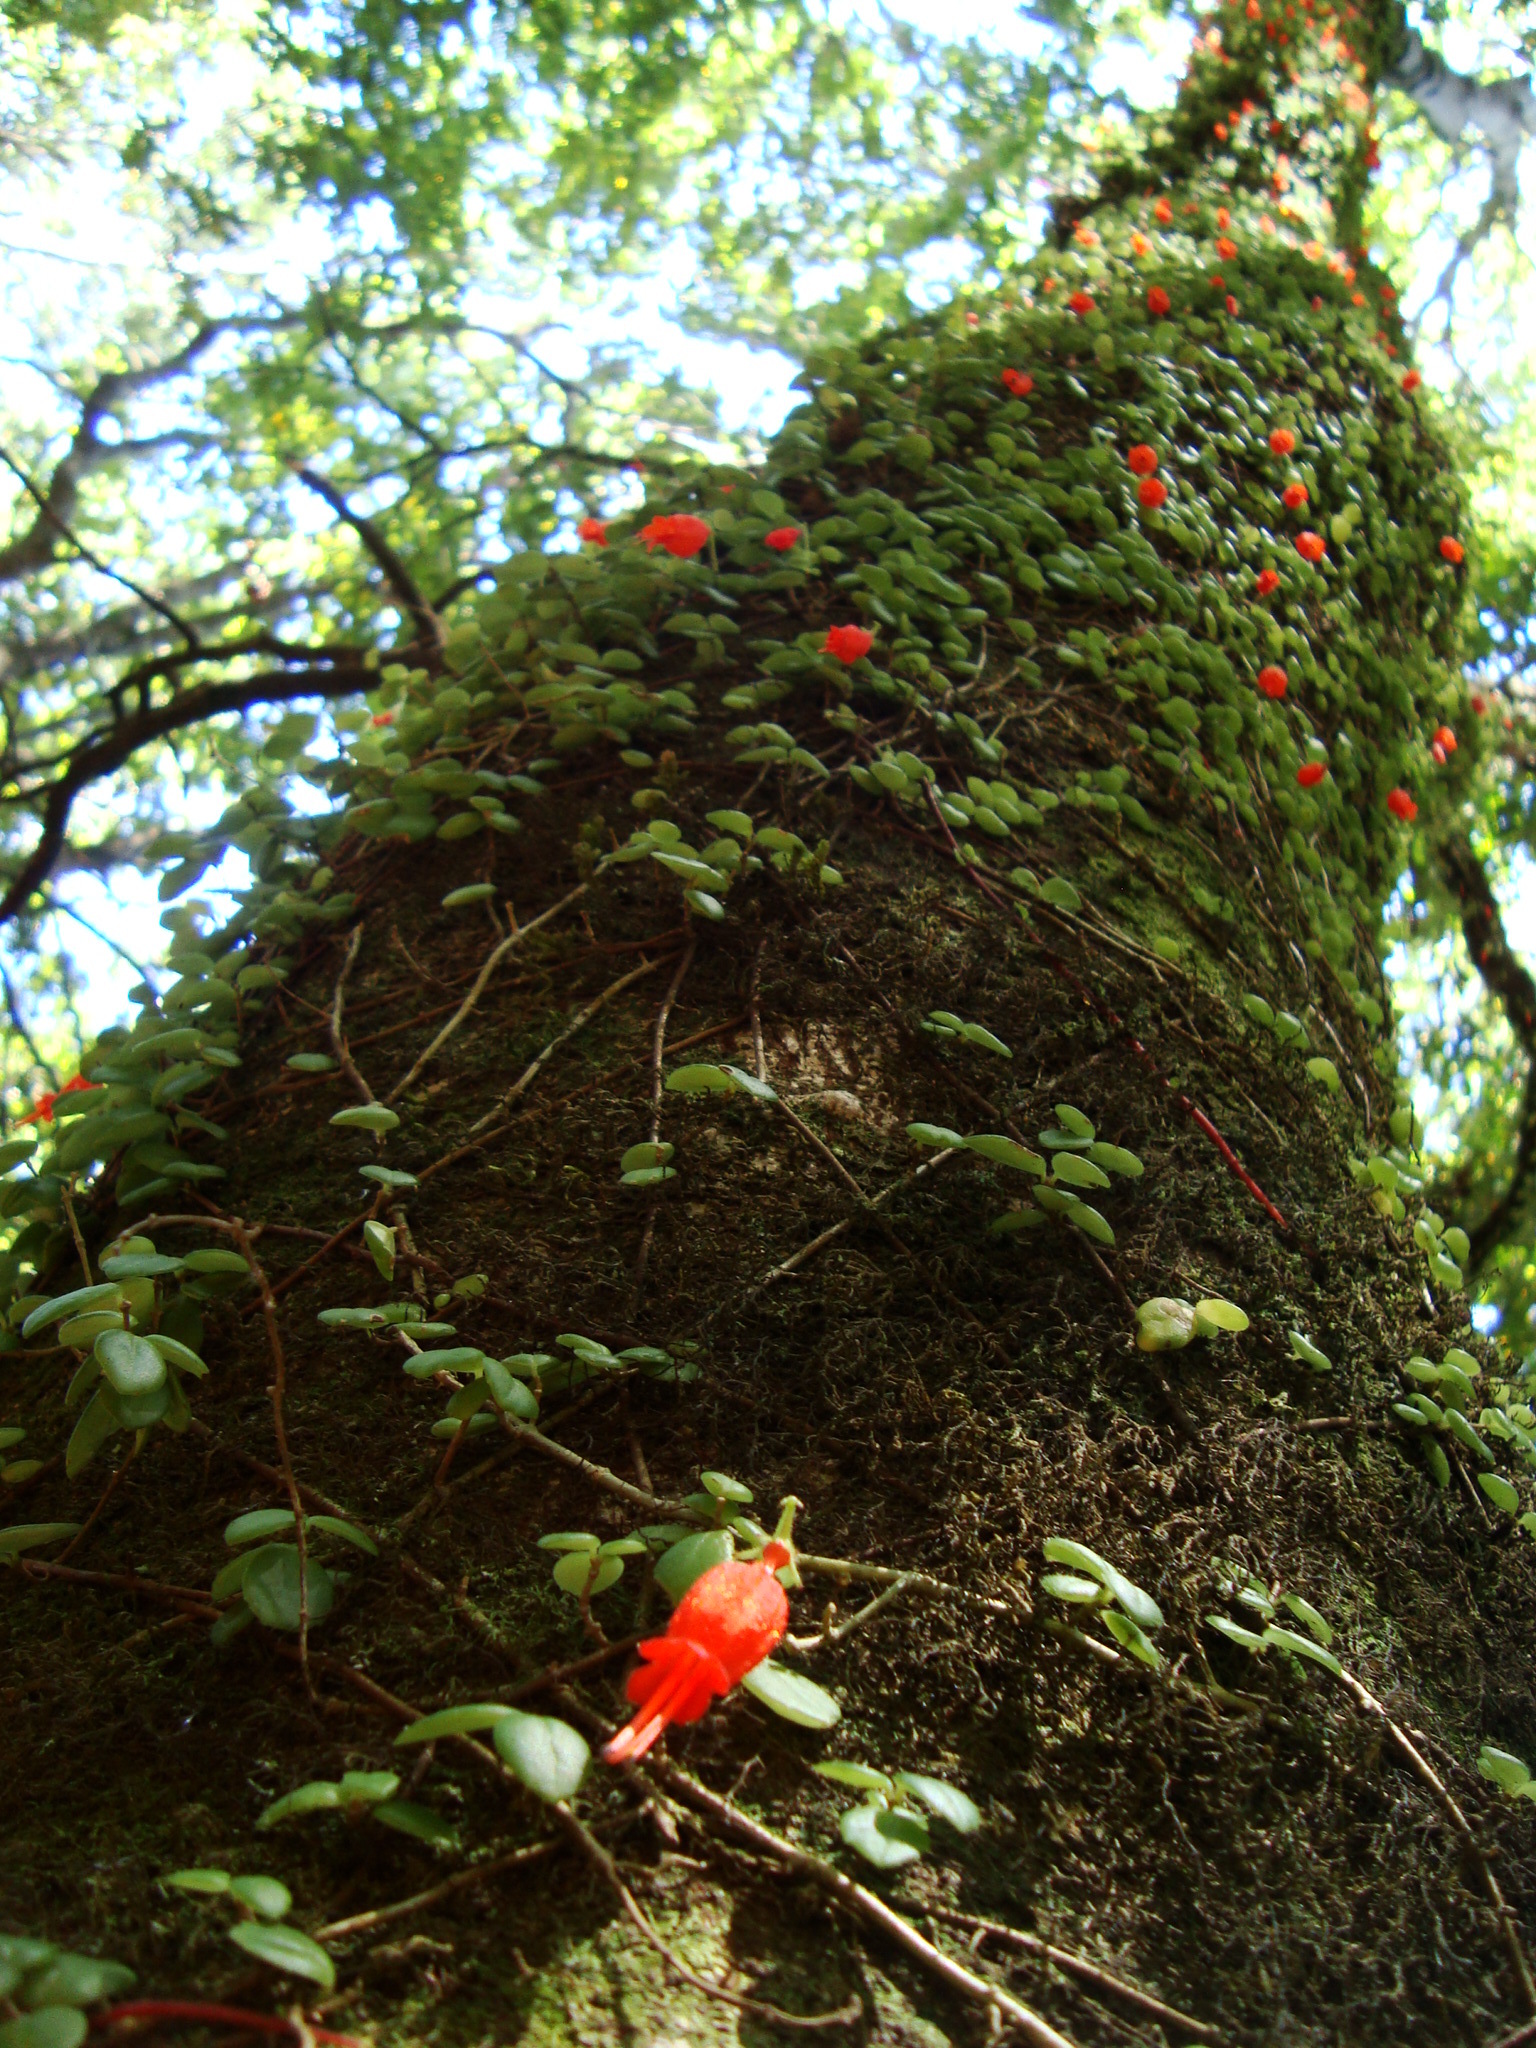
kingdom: Plantae
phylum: Tracheophyta
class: Magnoliopsida
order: Lamiales
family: Gesneriaceae
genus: Sarmienta
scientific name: Sarmienta scandens
